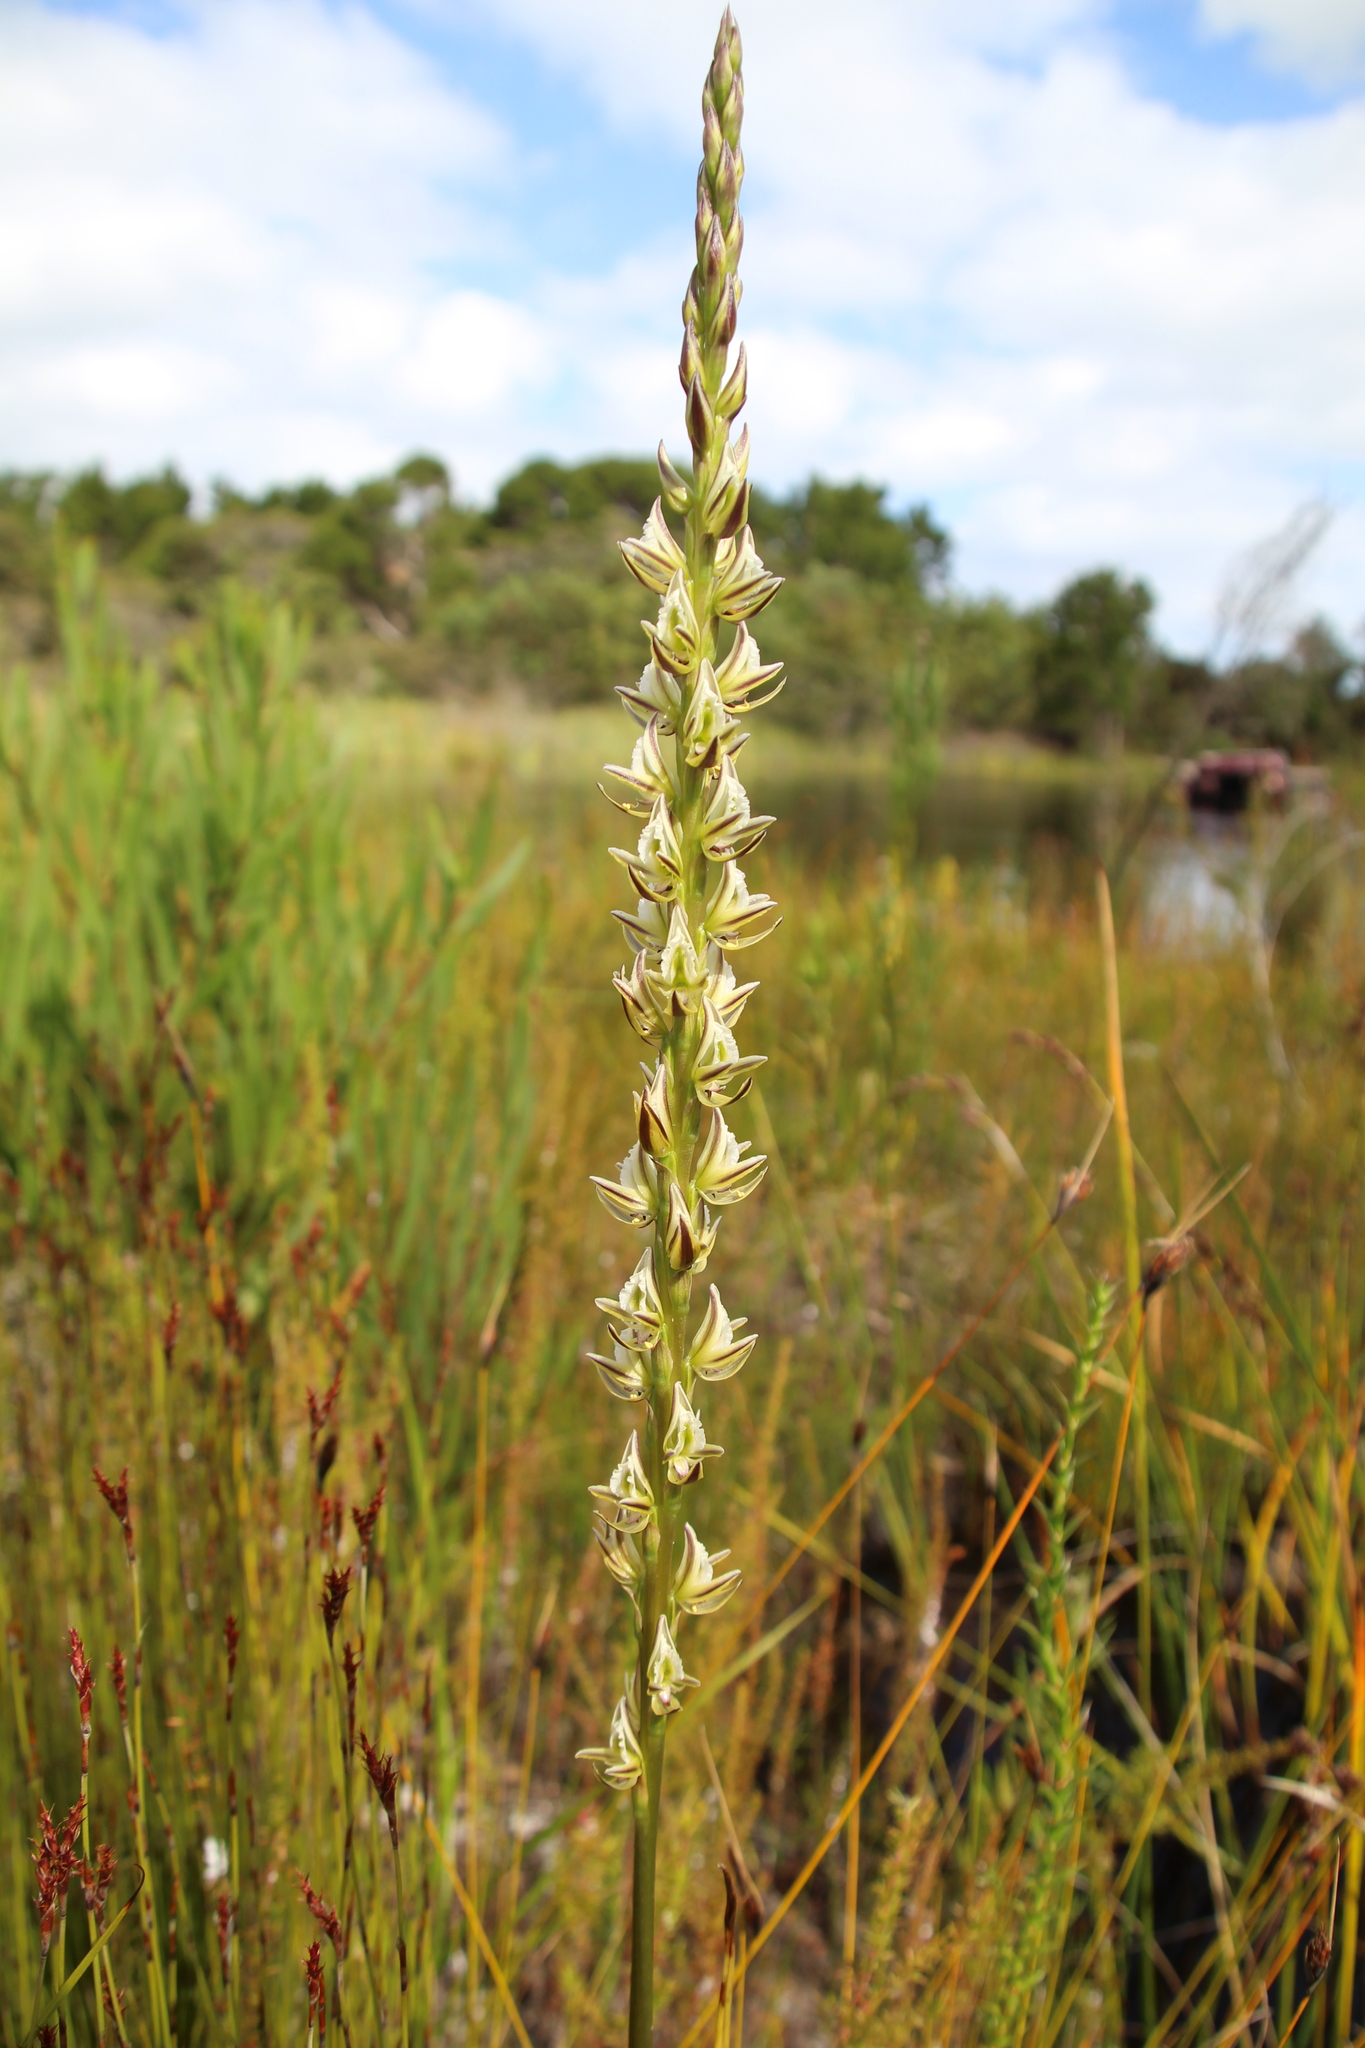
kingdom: Plantae
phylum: Tracheophyta
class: Liliopsida
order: Asparagales
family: Orchidaceae
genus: Prasophyllum
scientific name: Prasophyllum brownii
